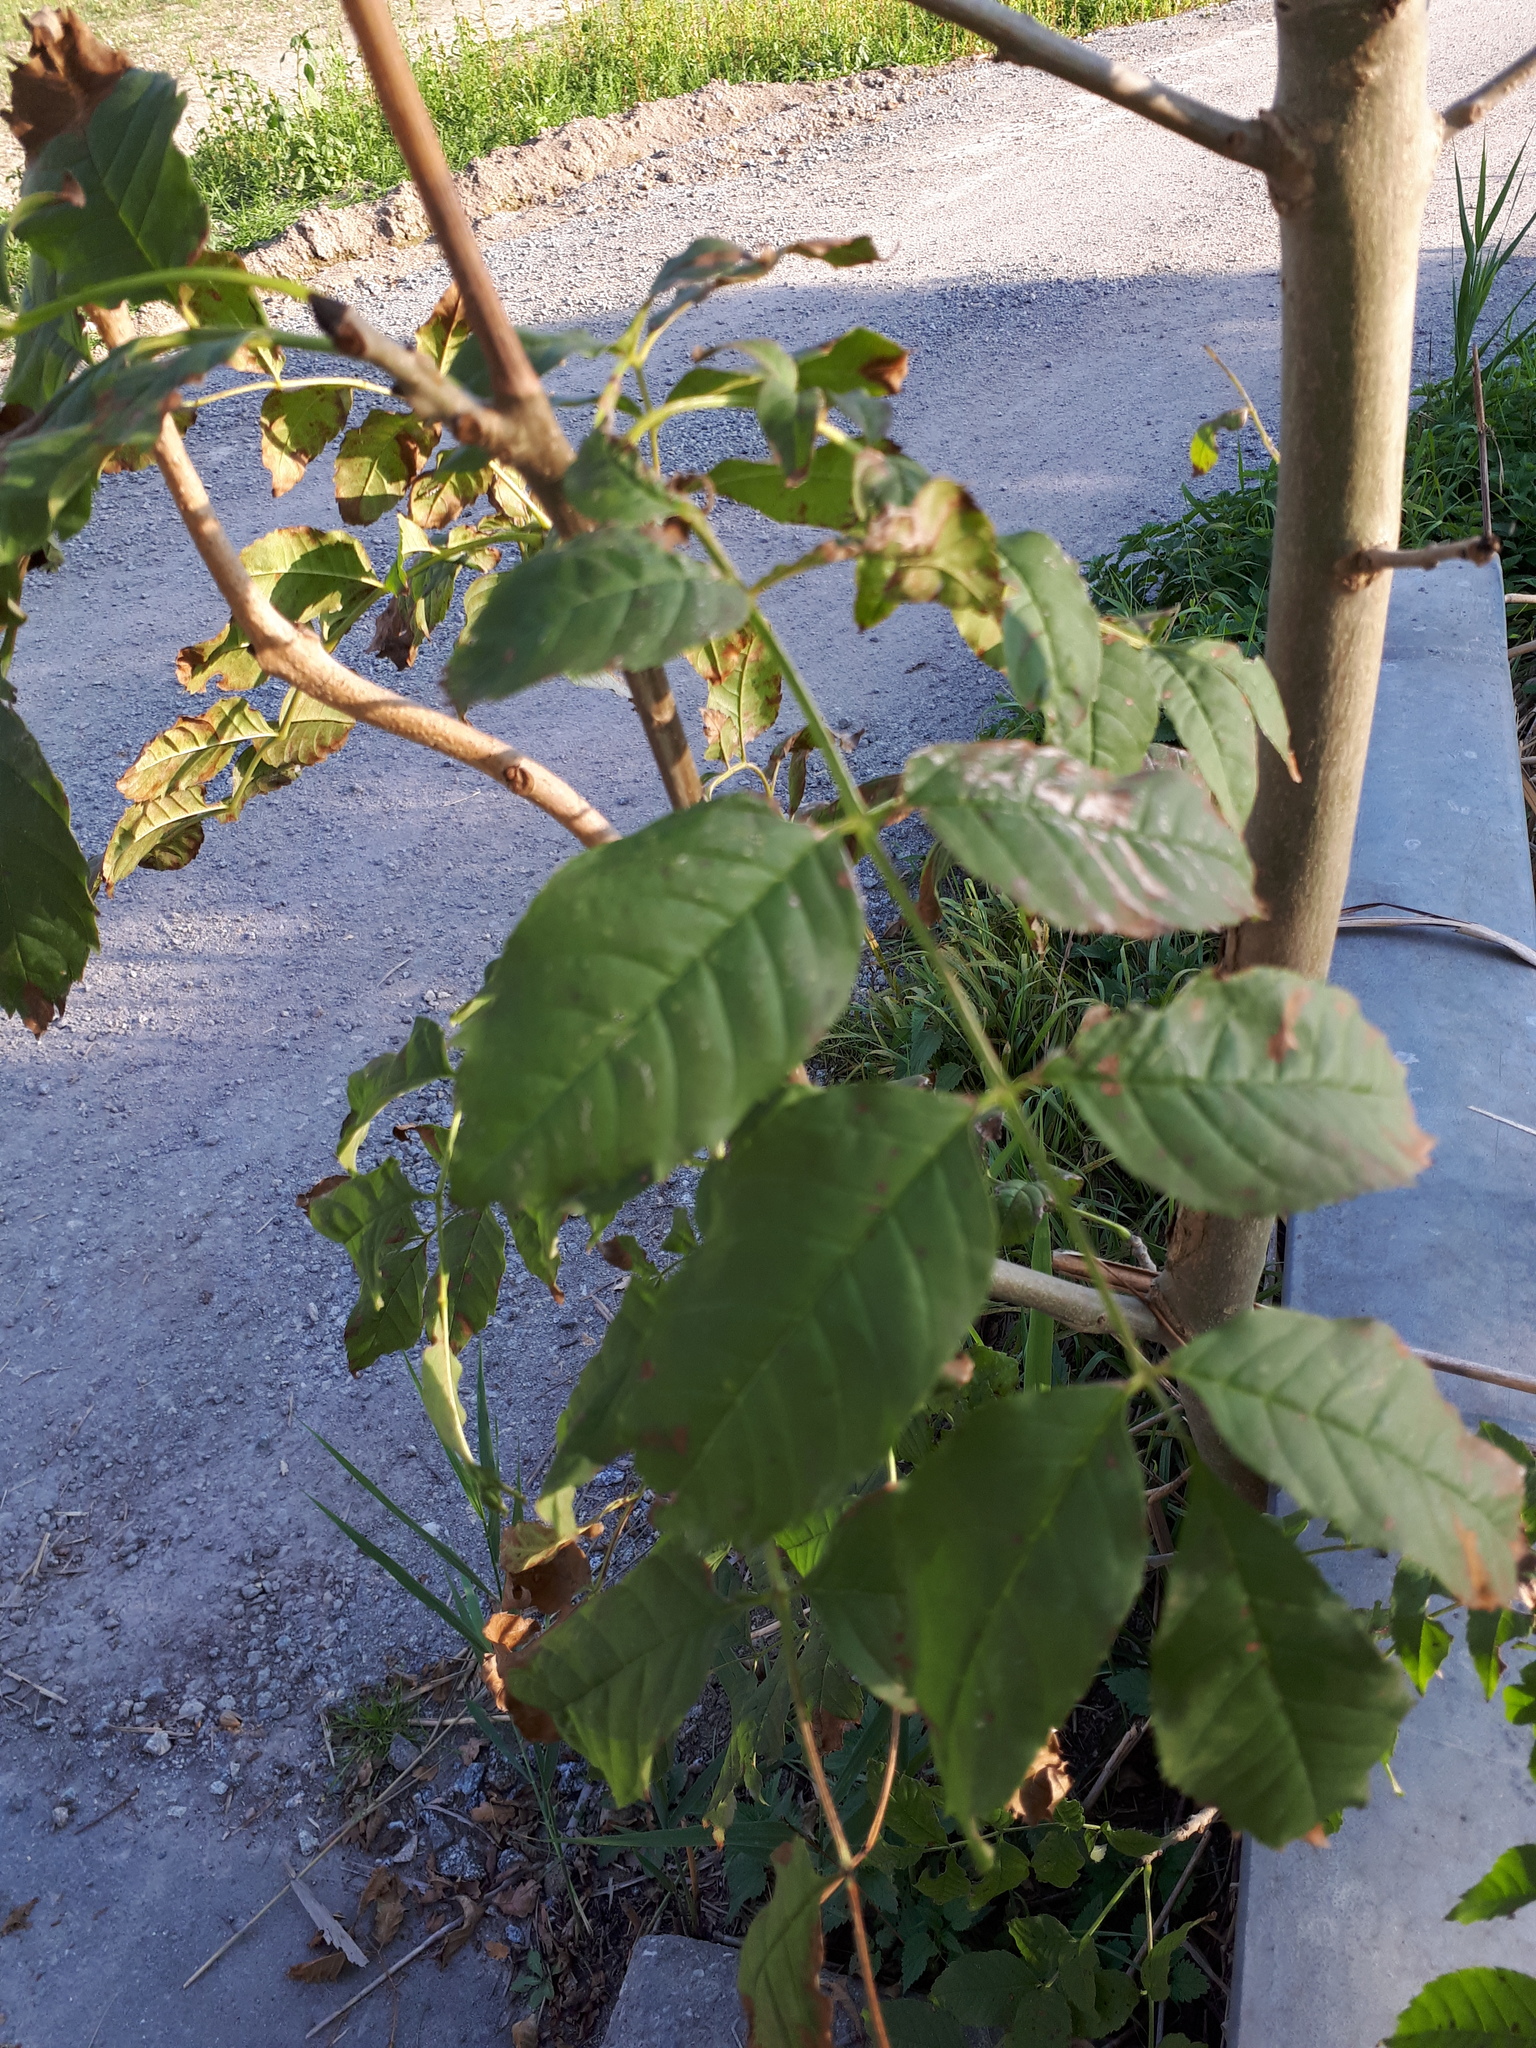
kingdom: Plantae
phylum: Tracheophyta
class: Magnoliopsida
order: Lamiales
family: Oleaceae
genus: Fraxinus
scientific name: Fraxinus excelsior
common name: European ash
